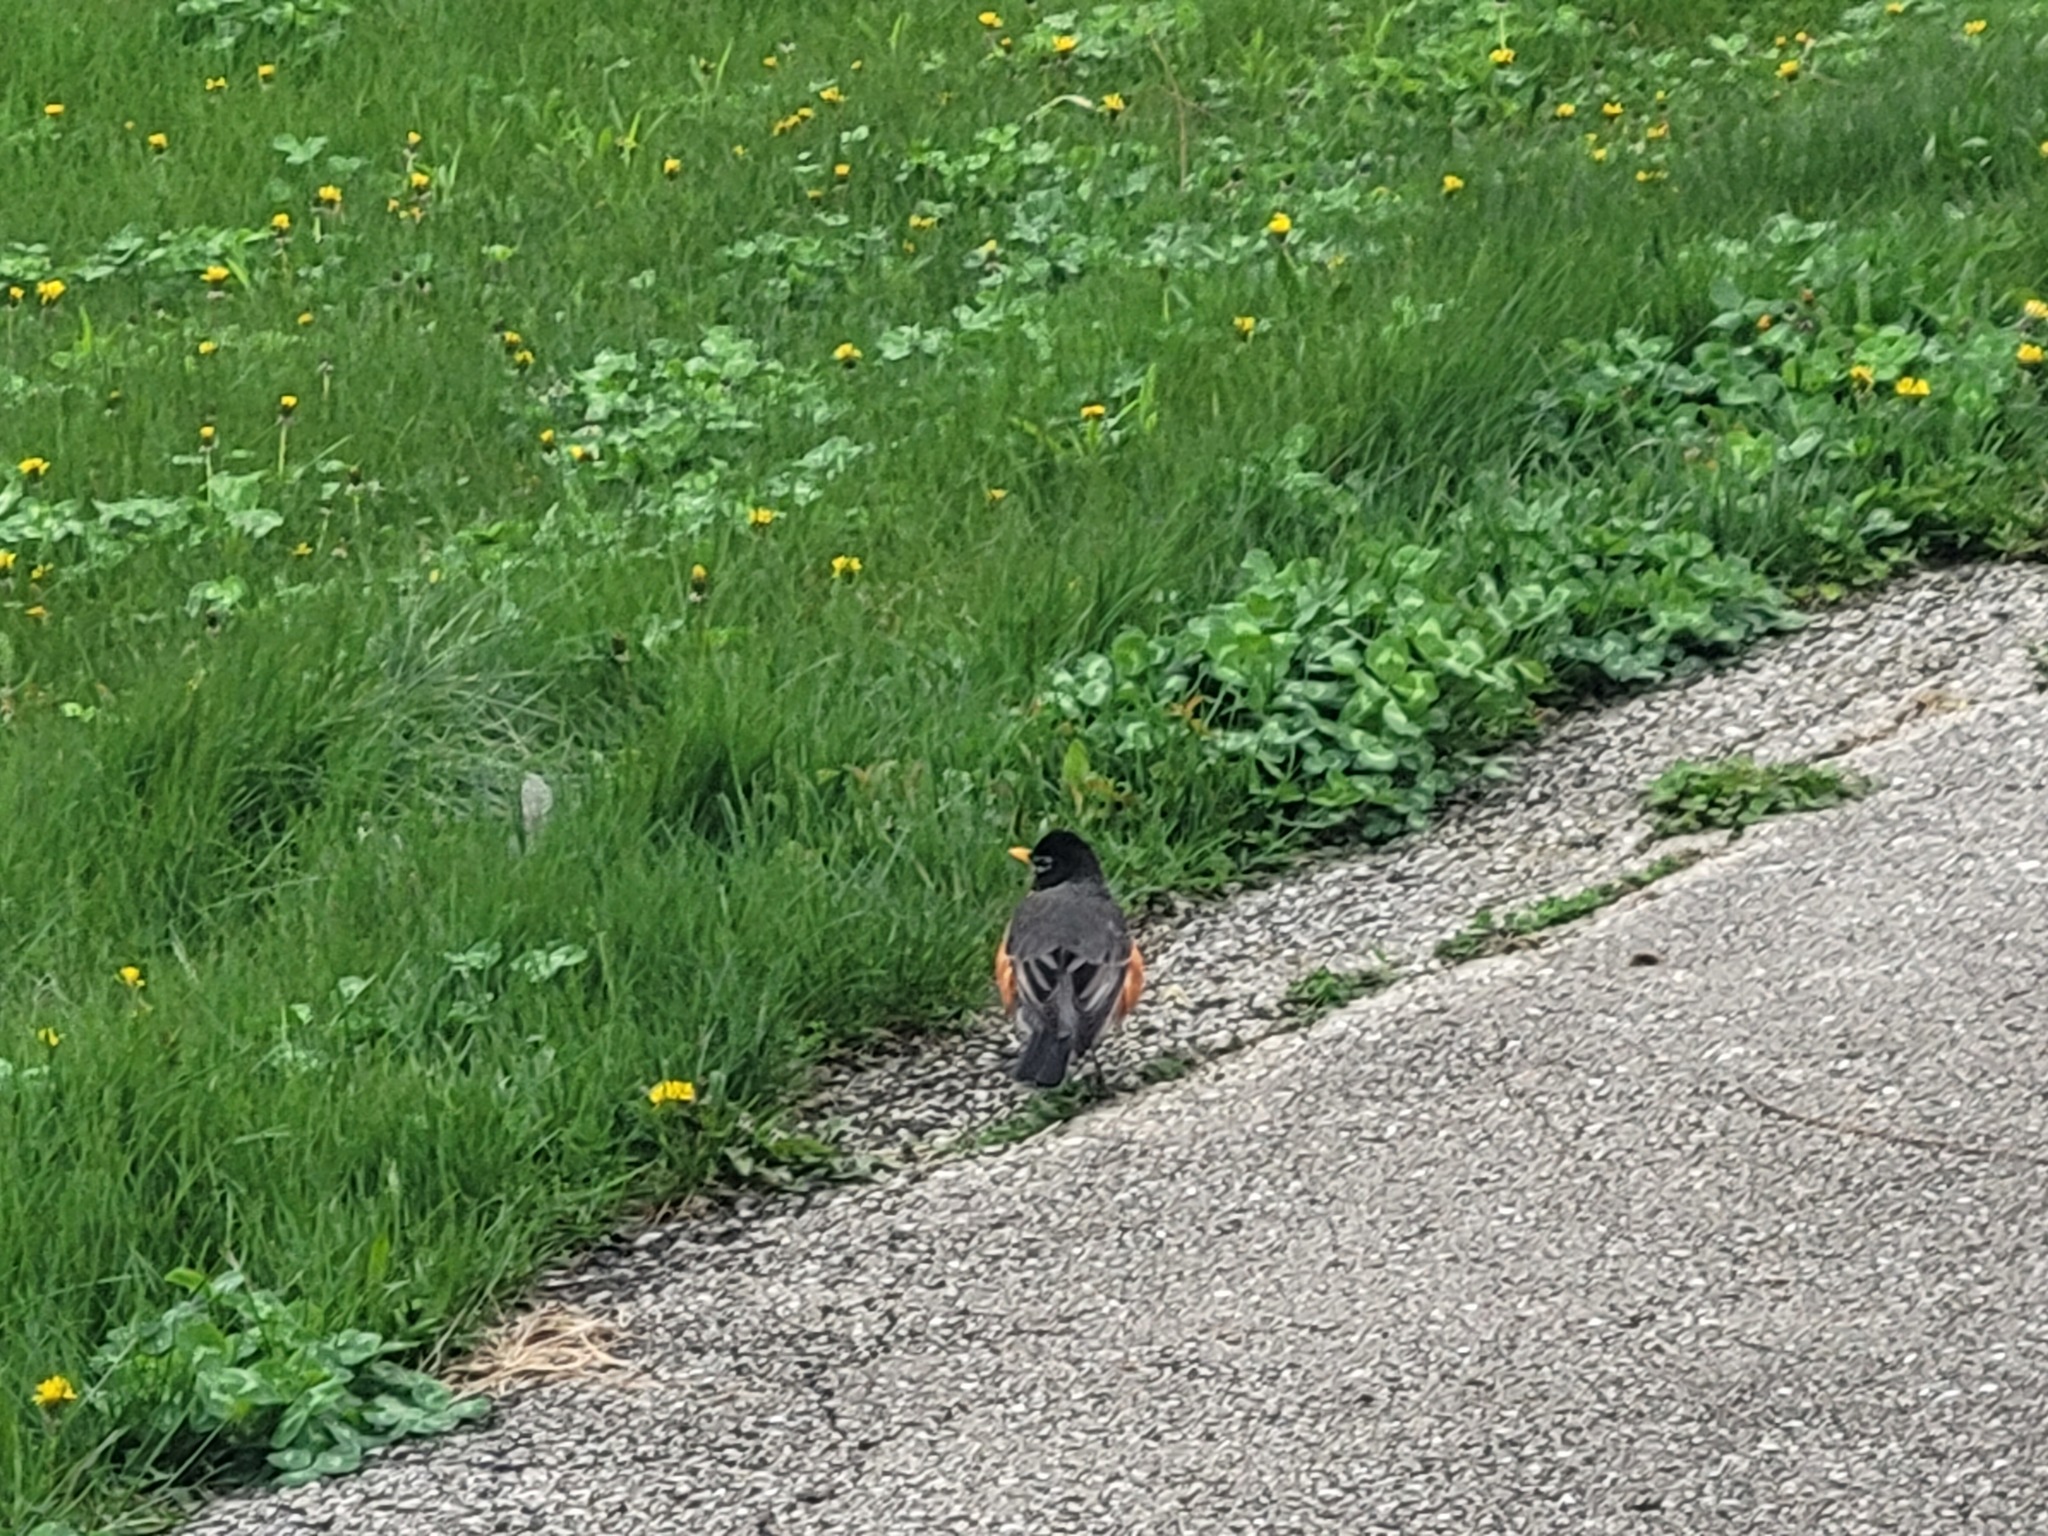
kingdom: Animalia
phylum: Chordata
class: Aves
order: Passeriformes
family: Turdidae
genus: Turdus
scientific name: Turdus migratorius
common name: American robin
